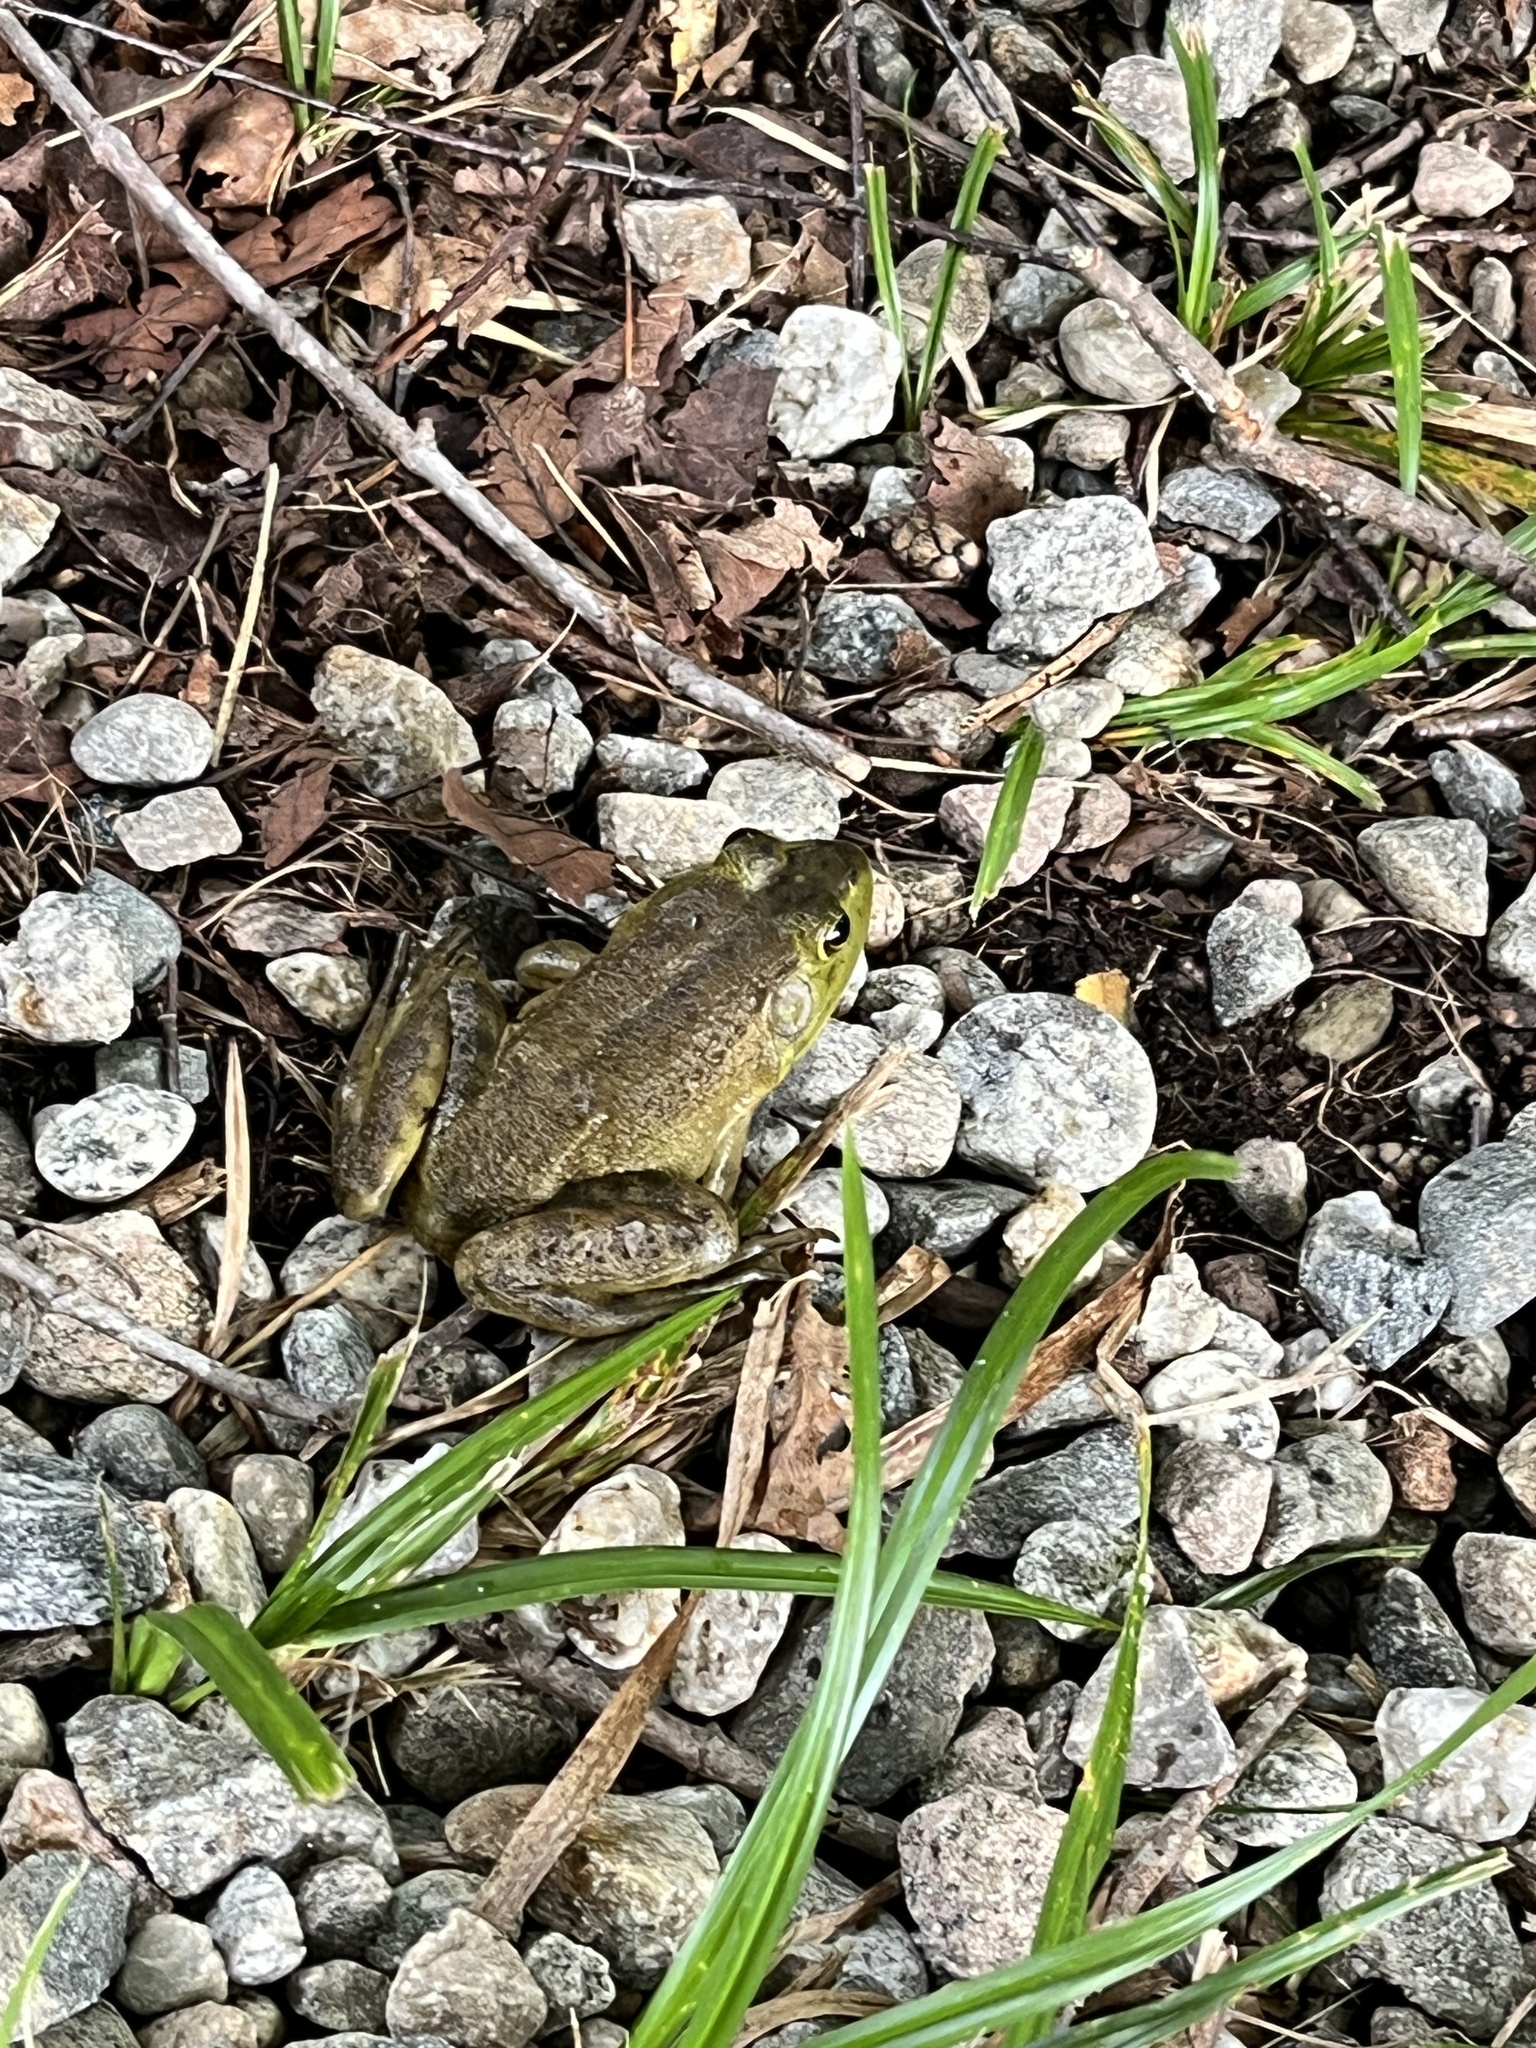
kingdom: Animalia
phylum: Chordata
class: Amphibia
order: Anura
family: Ranidae
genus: Lithobates
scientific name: Lithobates catesbeianus
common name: American bullfrog
